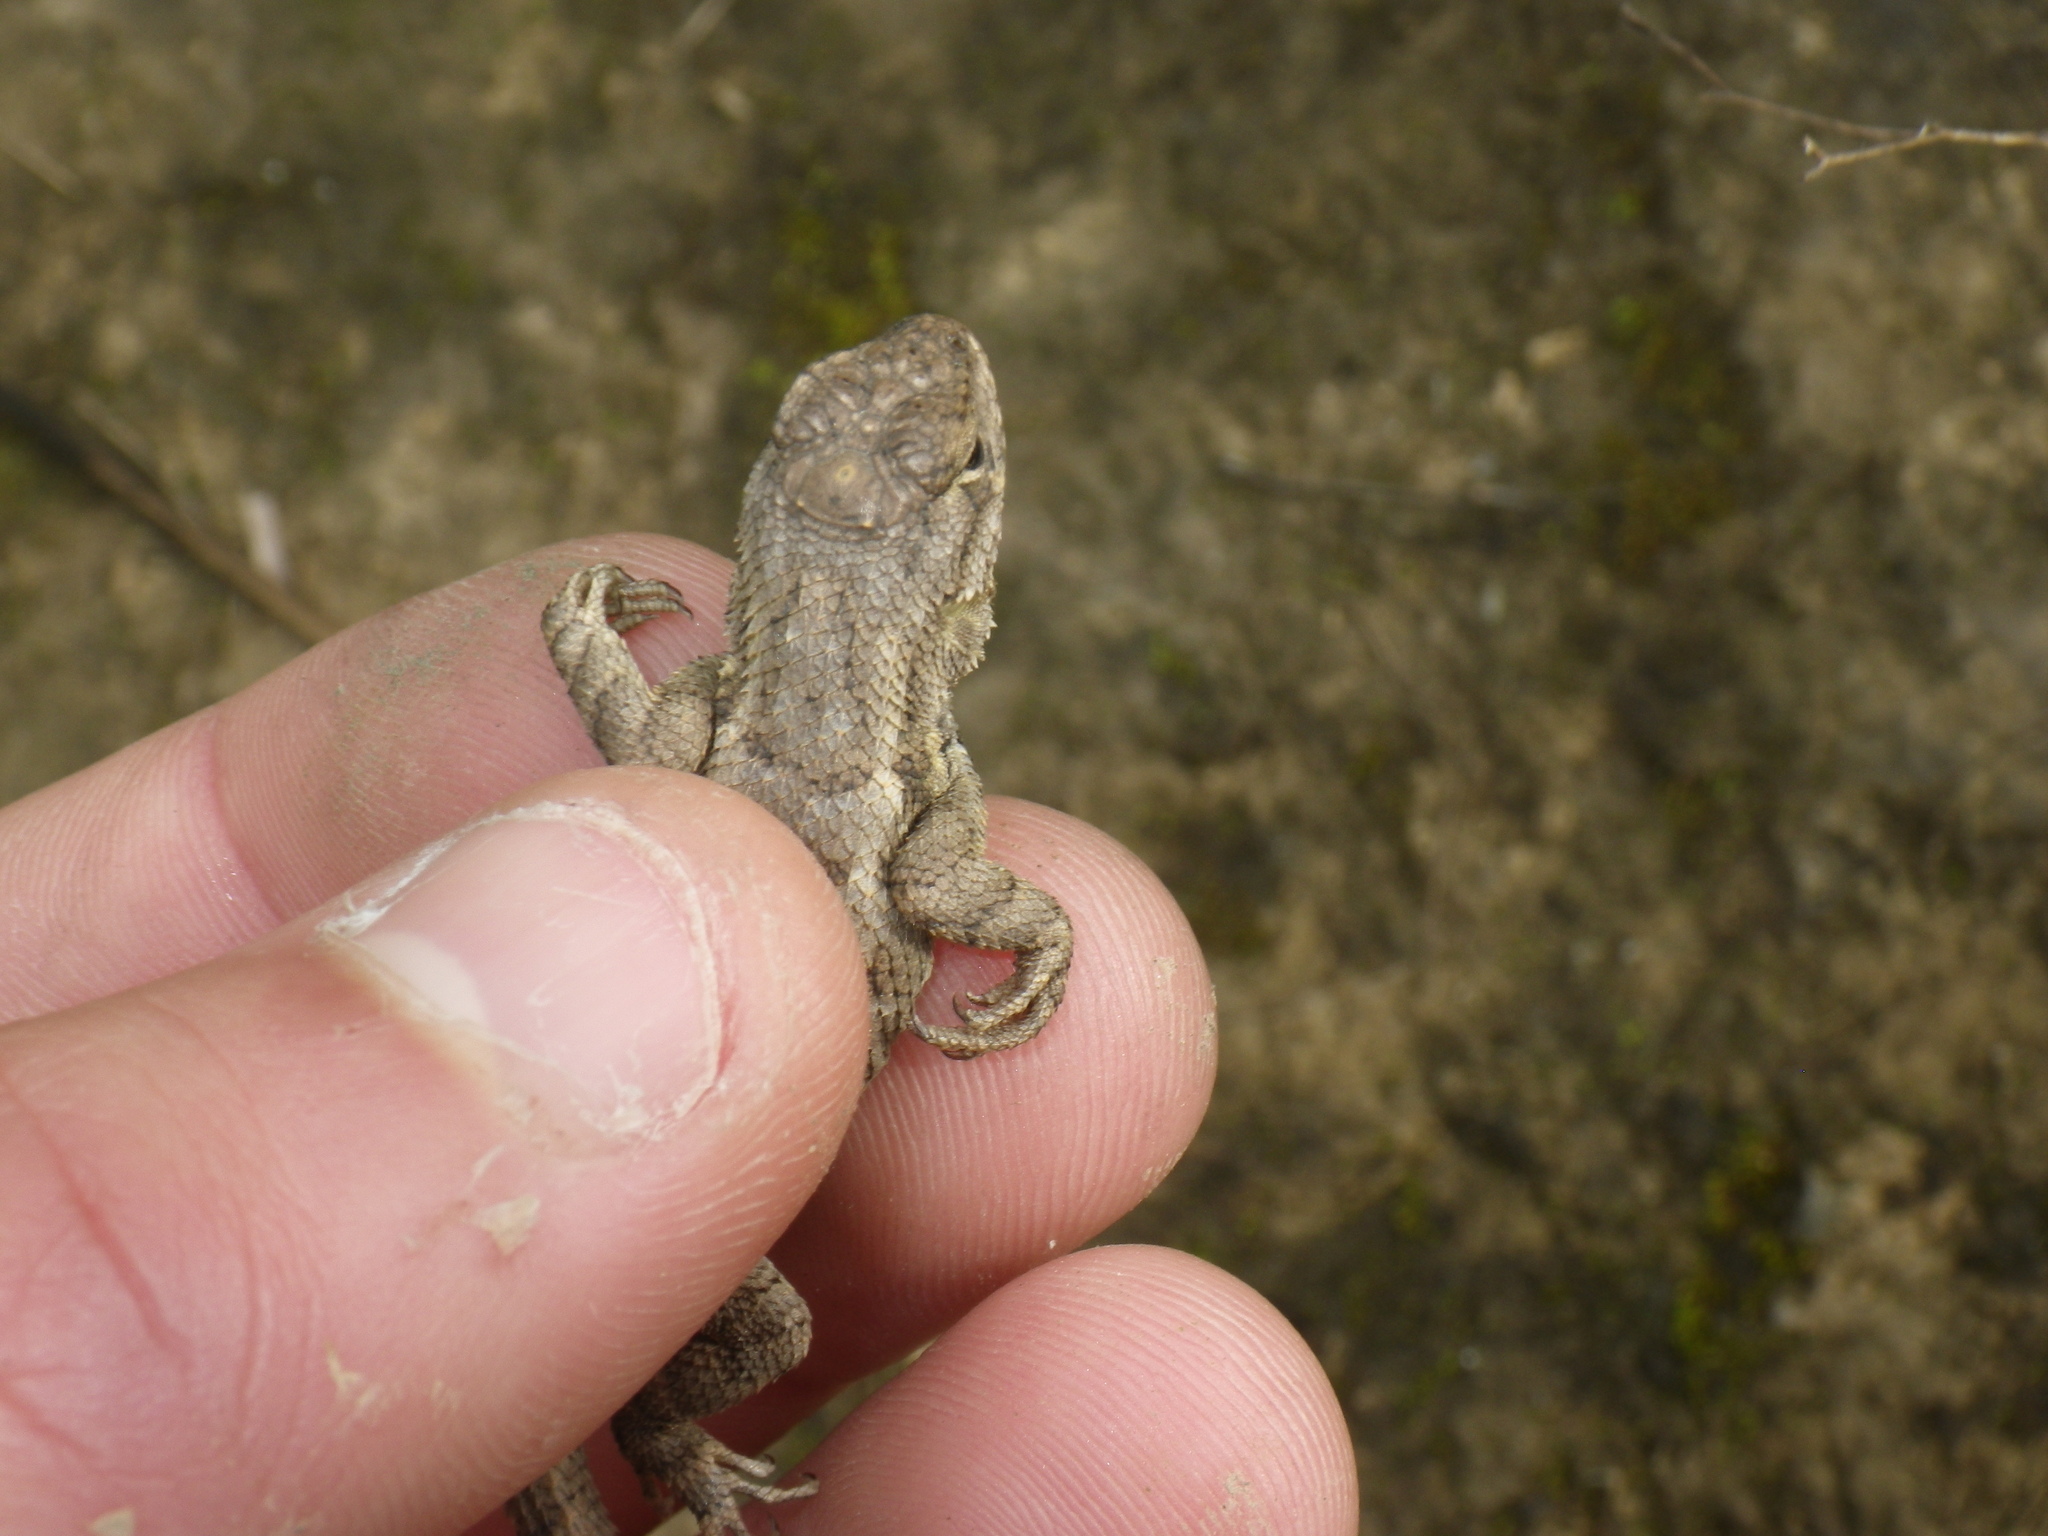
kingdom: Animalia
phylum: Chordata
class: Squamata
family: Phrynosomatidae
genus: Sceloporus
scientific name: Sceloporus occidentalis
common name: Western fence lizard
